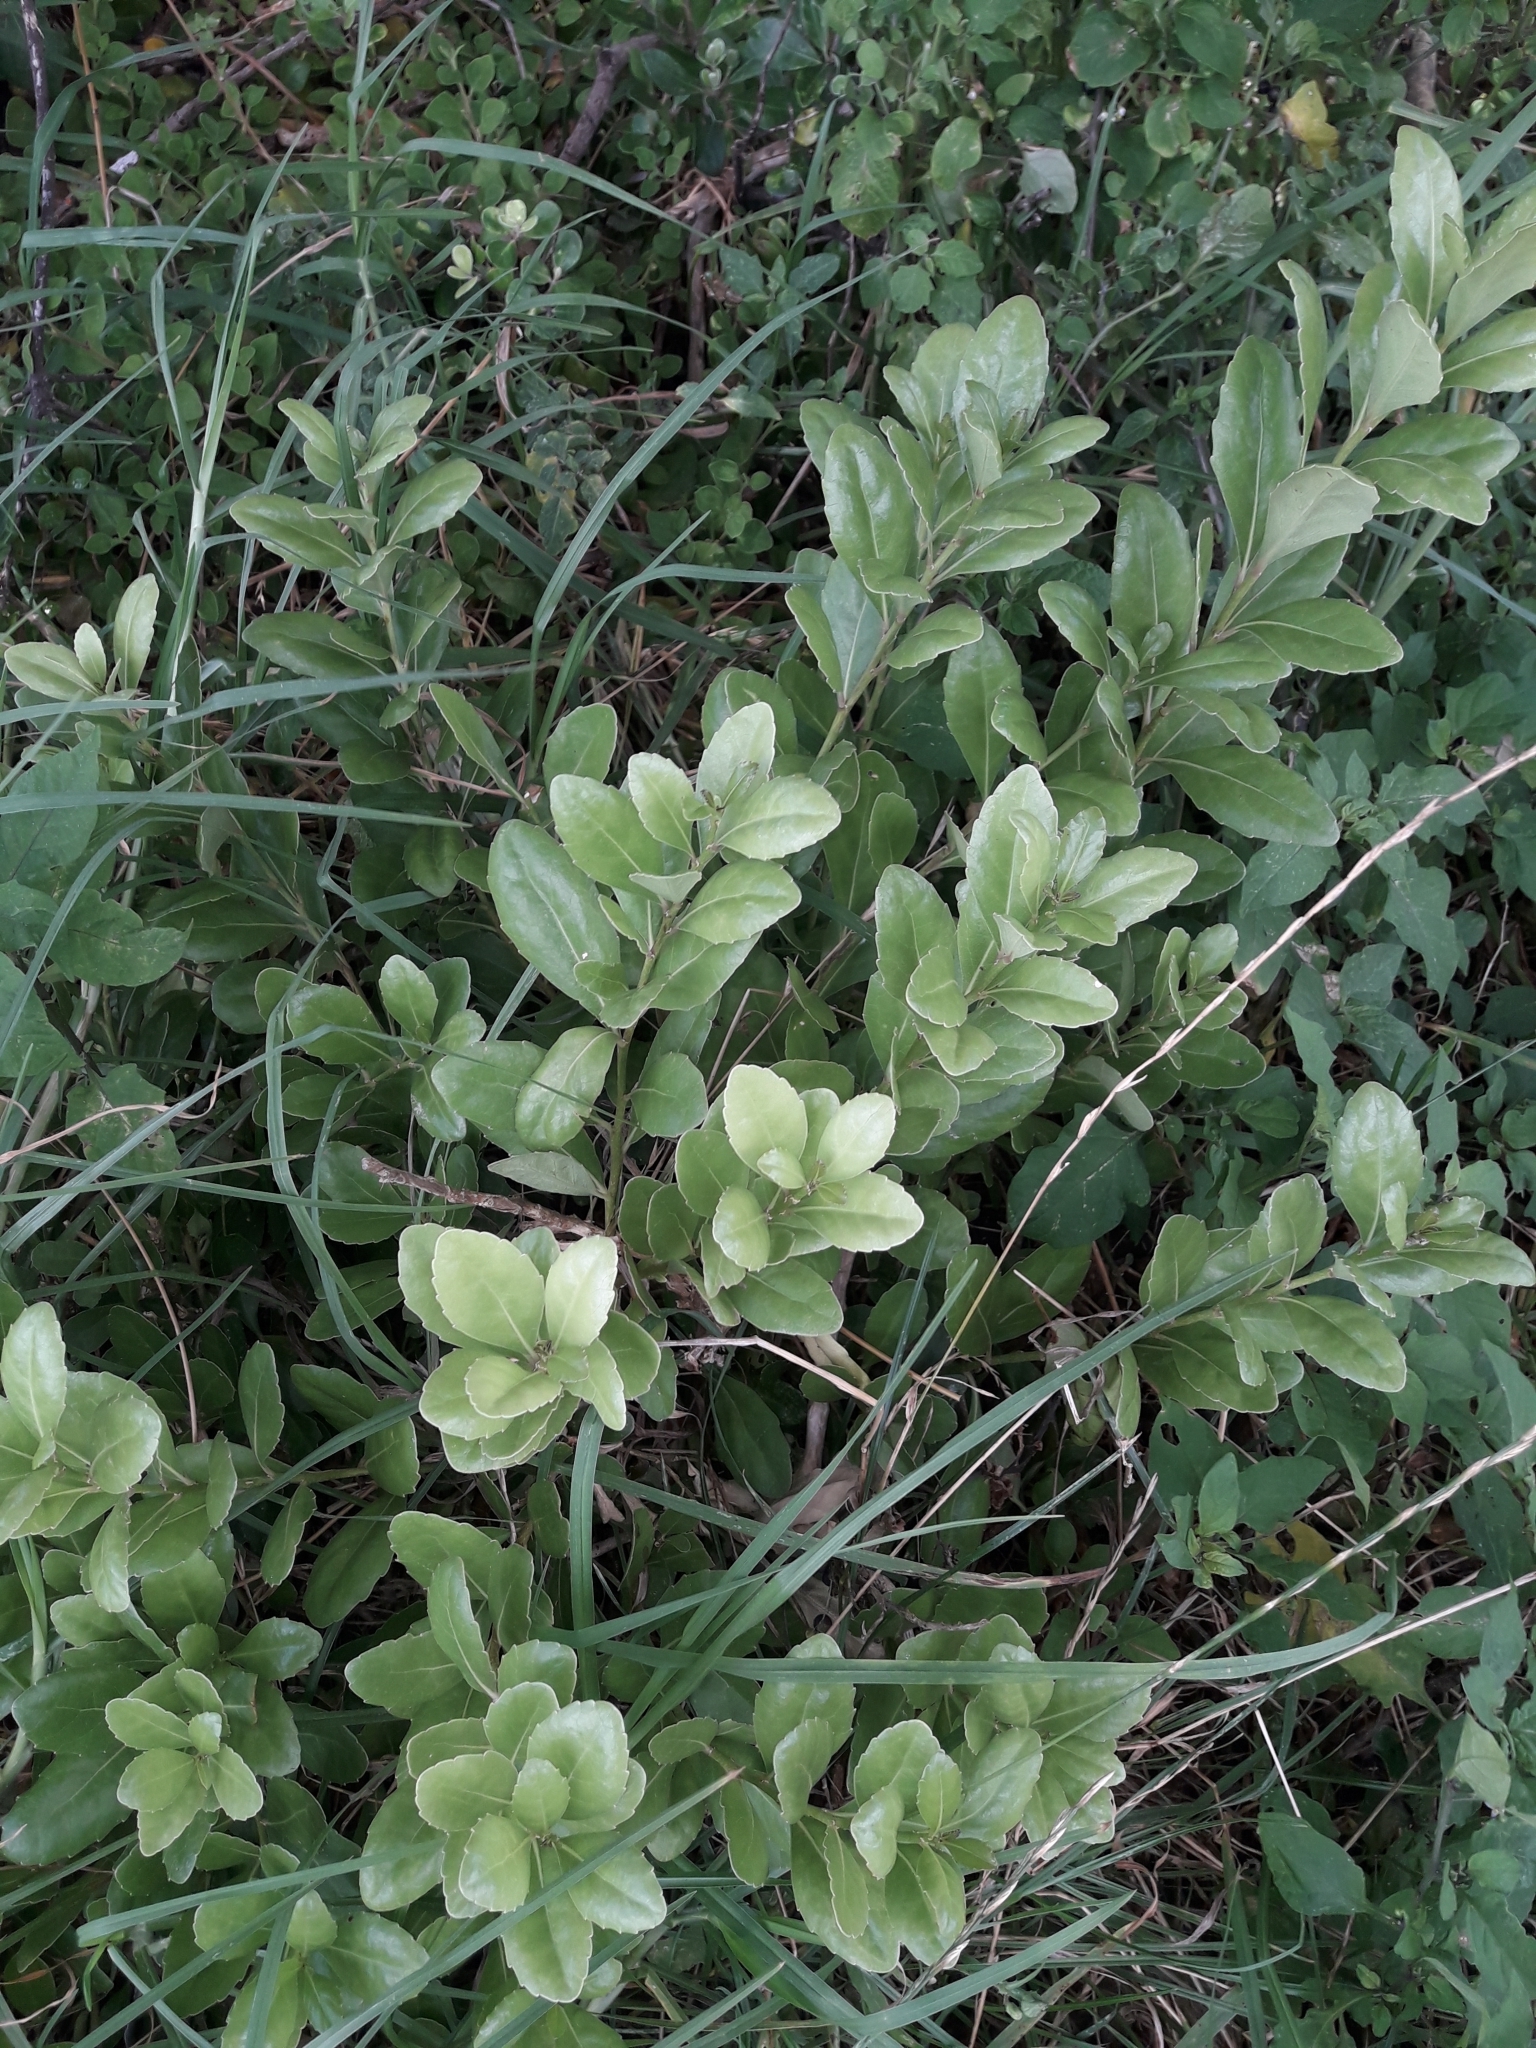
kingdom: Plantae
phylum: Tracheophyta
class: Magnoliopsida
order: Malpighiales
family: Violaceae
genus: Melicytus
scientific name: Melicytus novae-zelandiae
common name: Coastal mahoe
